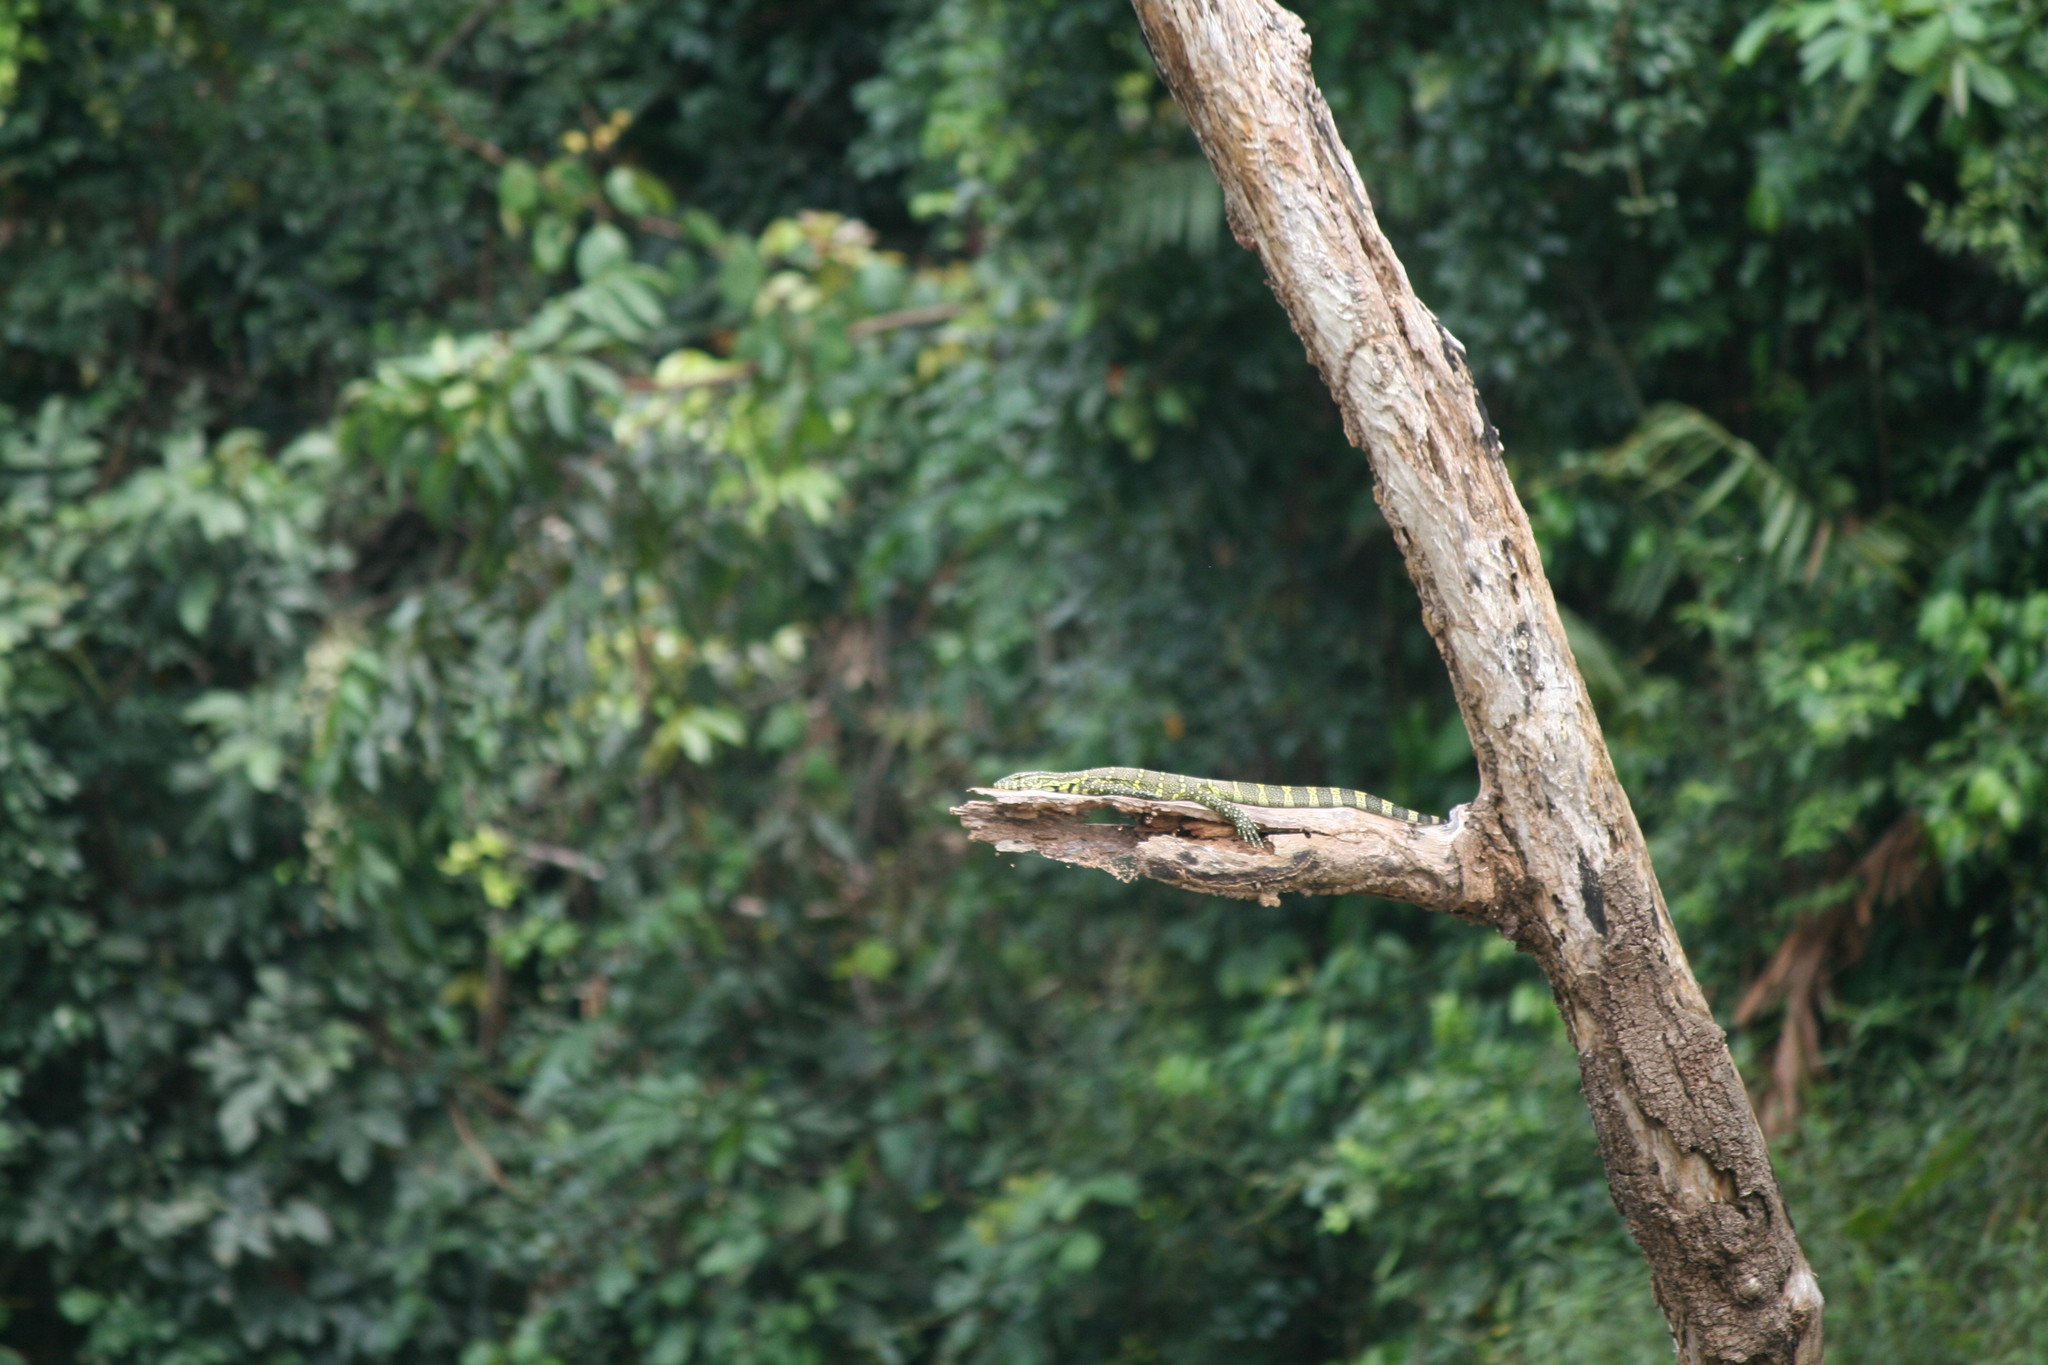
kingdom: Animalia
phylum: Chordata
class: Squamata
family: Varanidae
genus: Varanus
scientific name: Varanus niloticus
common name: Nile monitor
